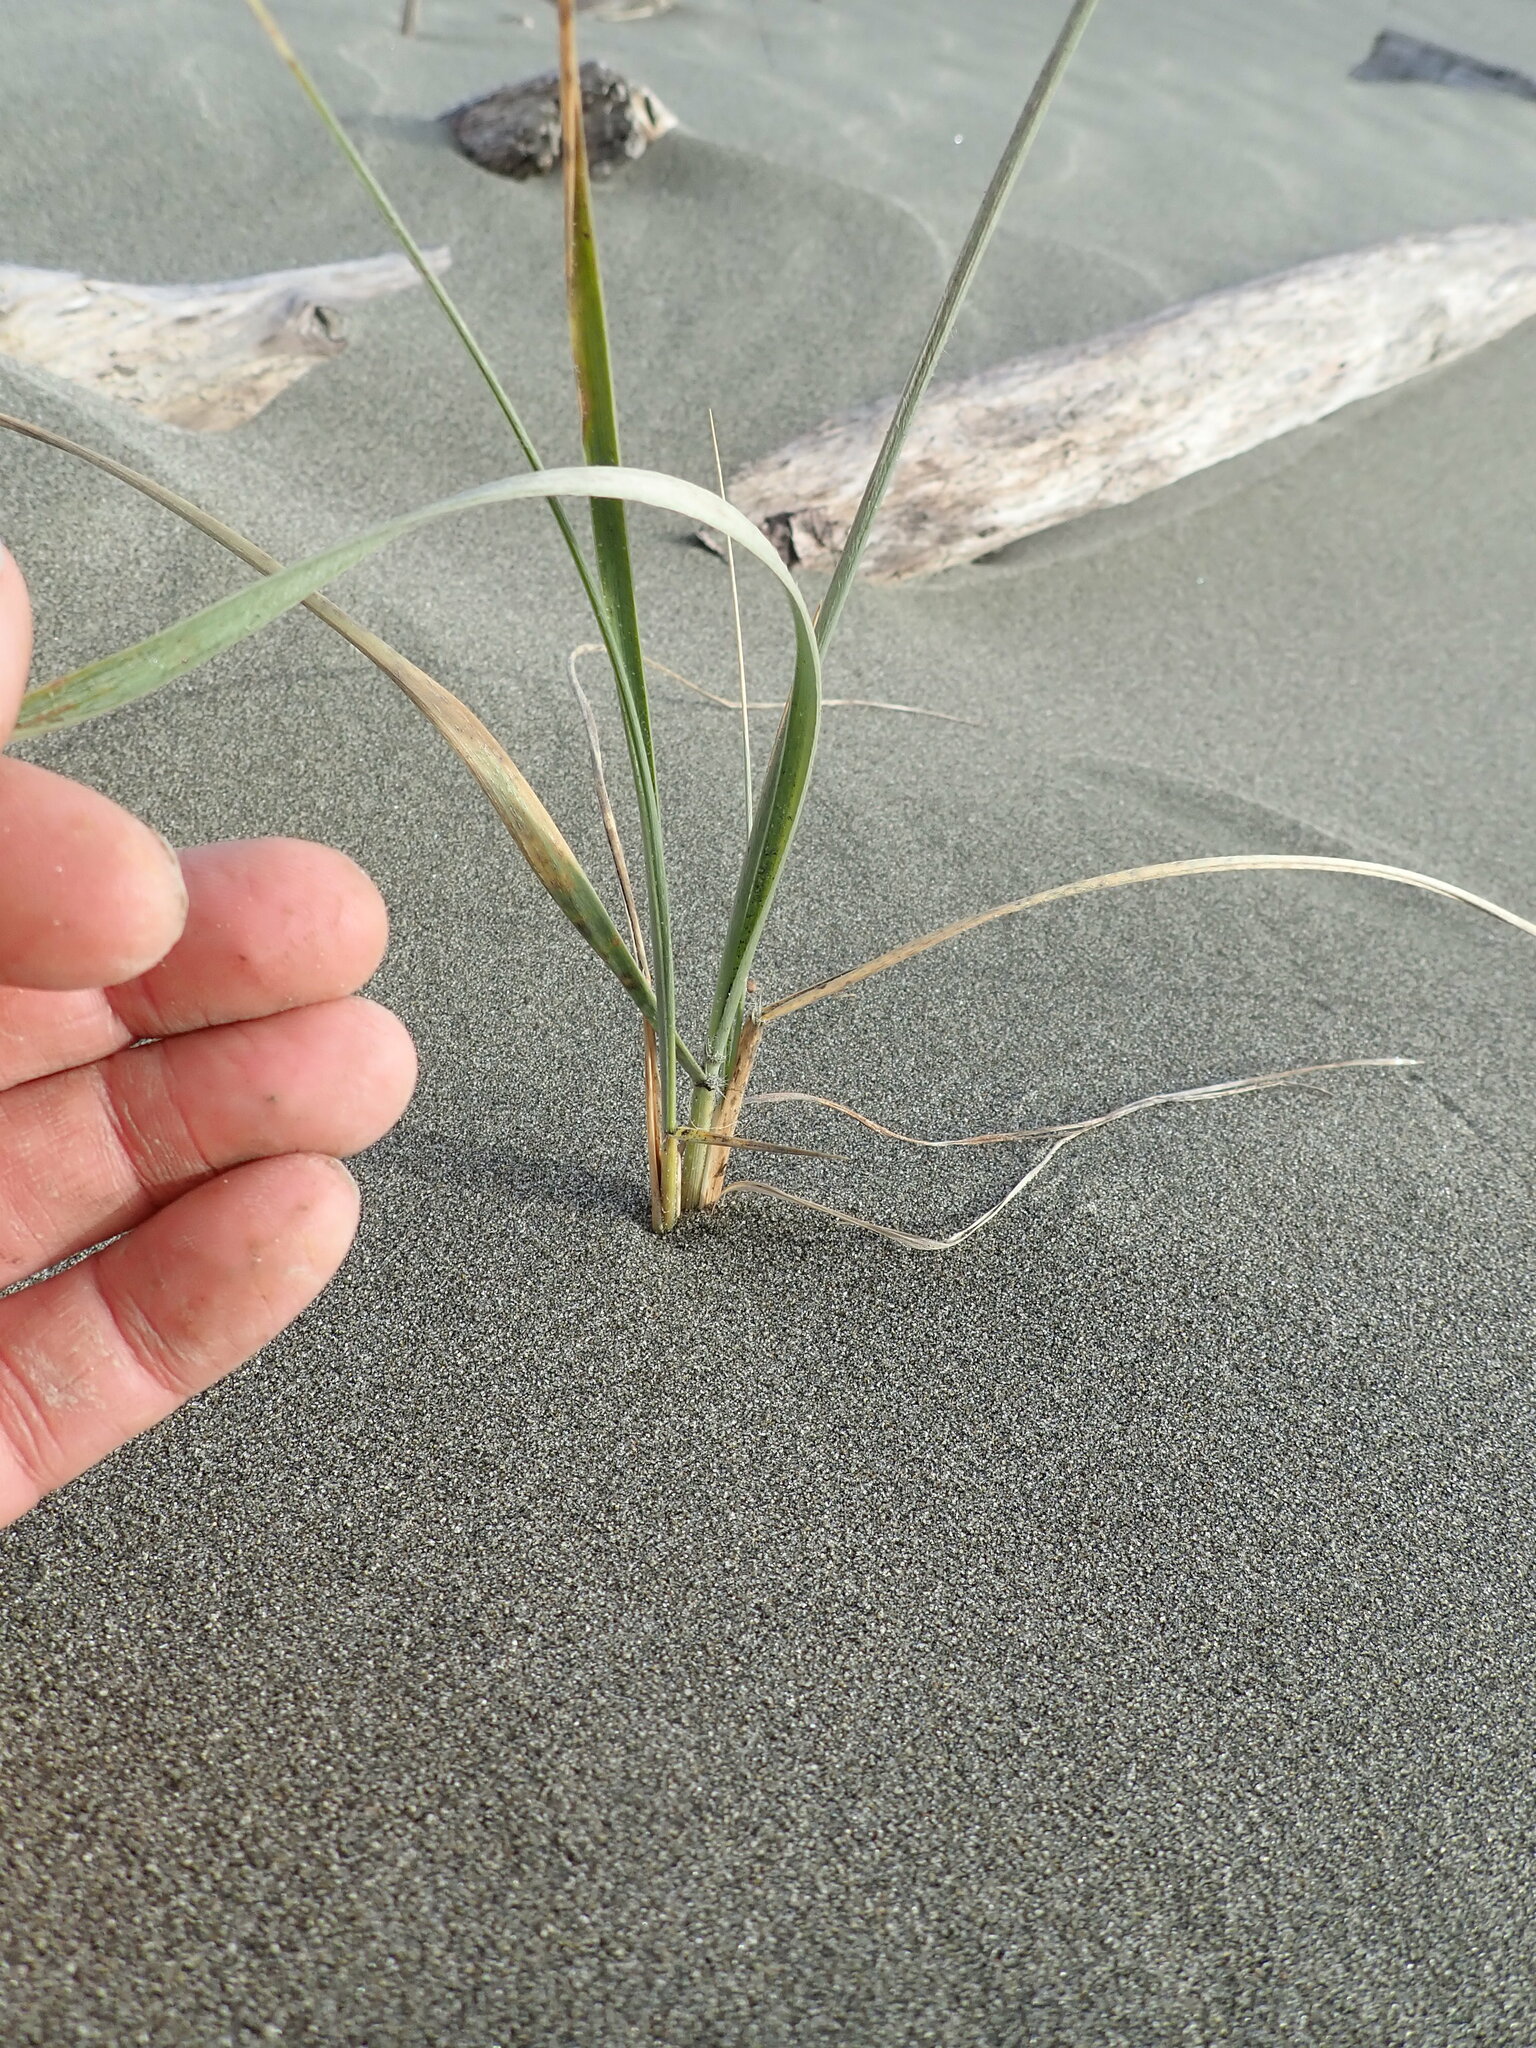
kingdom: Plantae
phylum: Tracheophyta
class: Liliopsida
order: Poales
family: Poaceae
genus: Spinifex
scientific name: Spinifex sericeus
